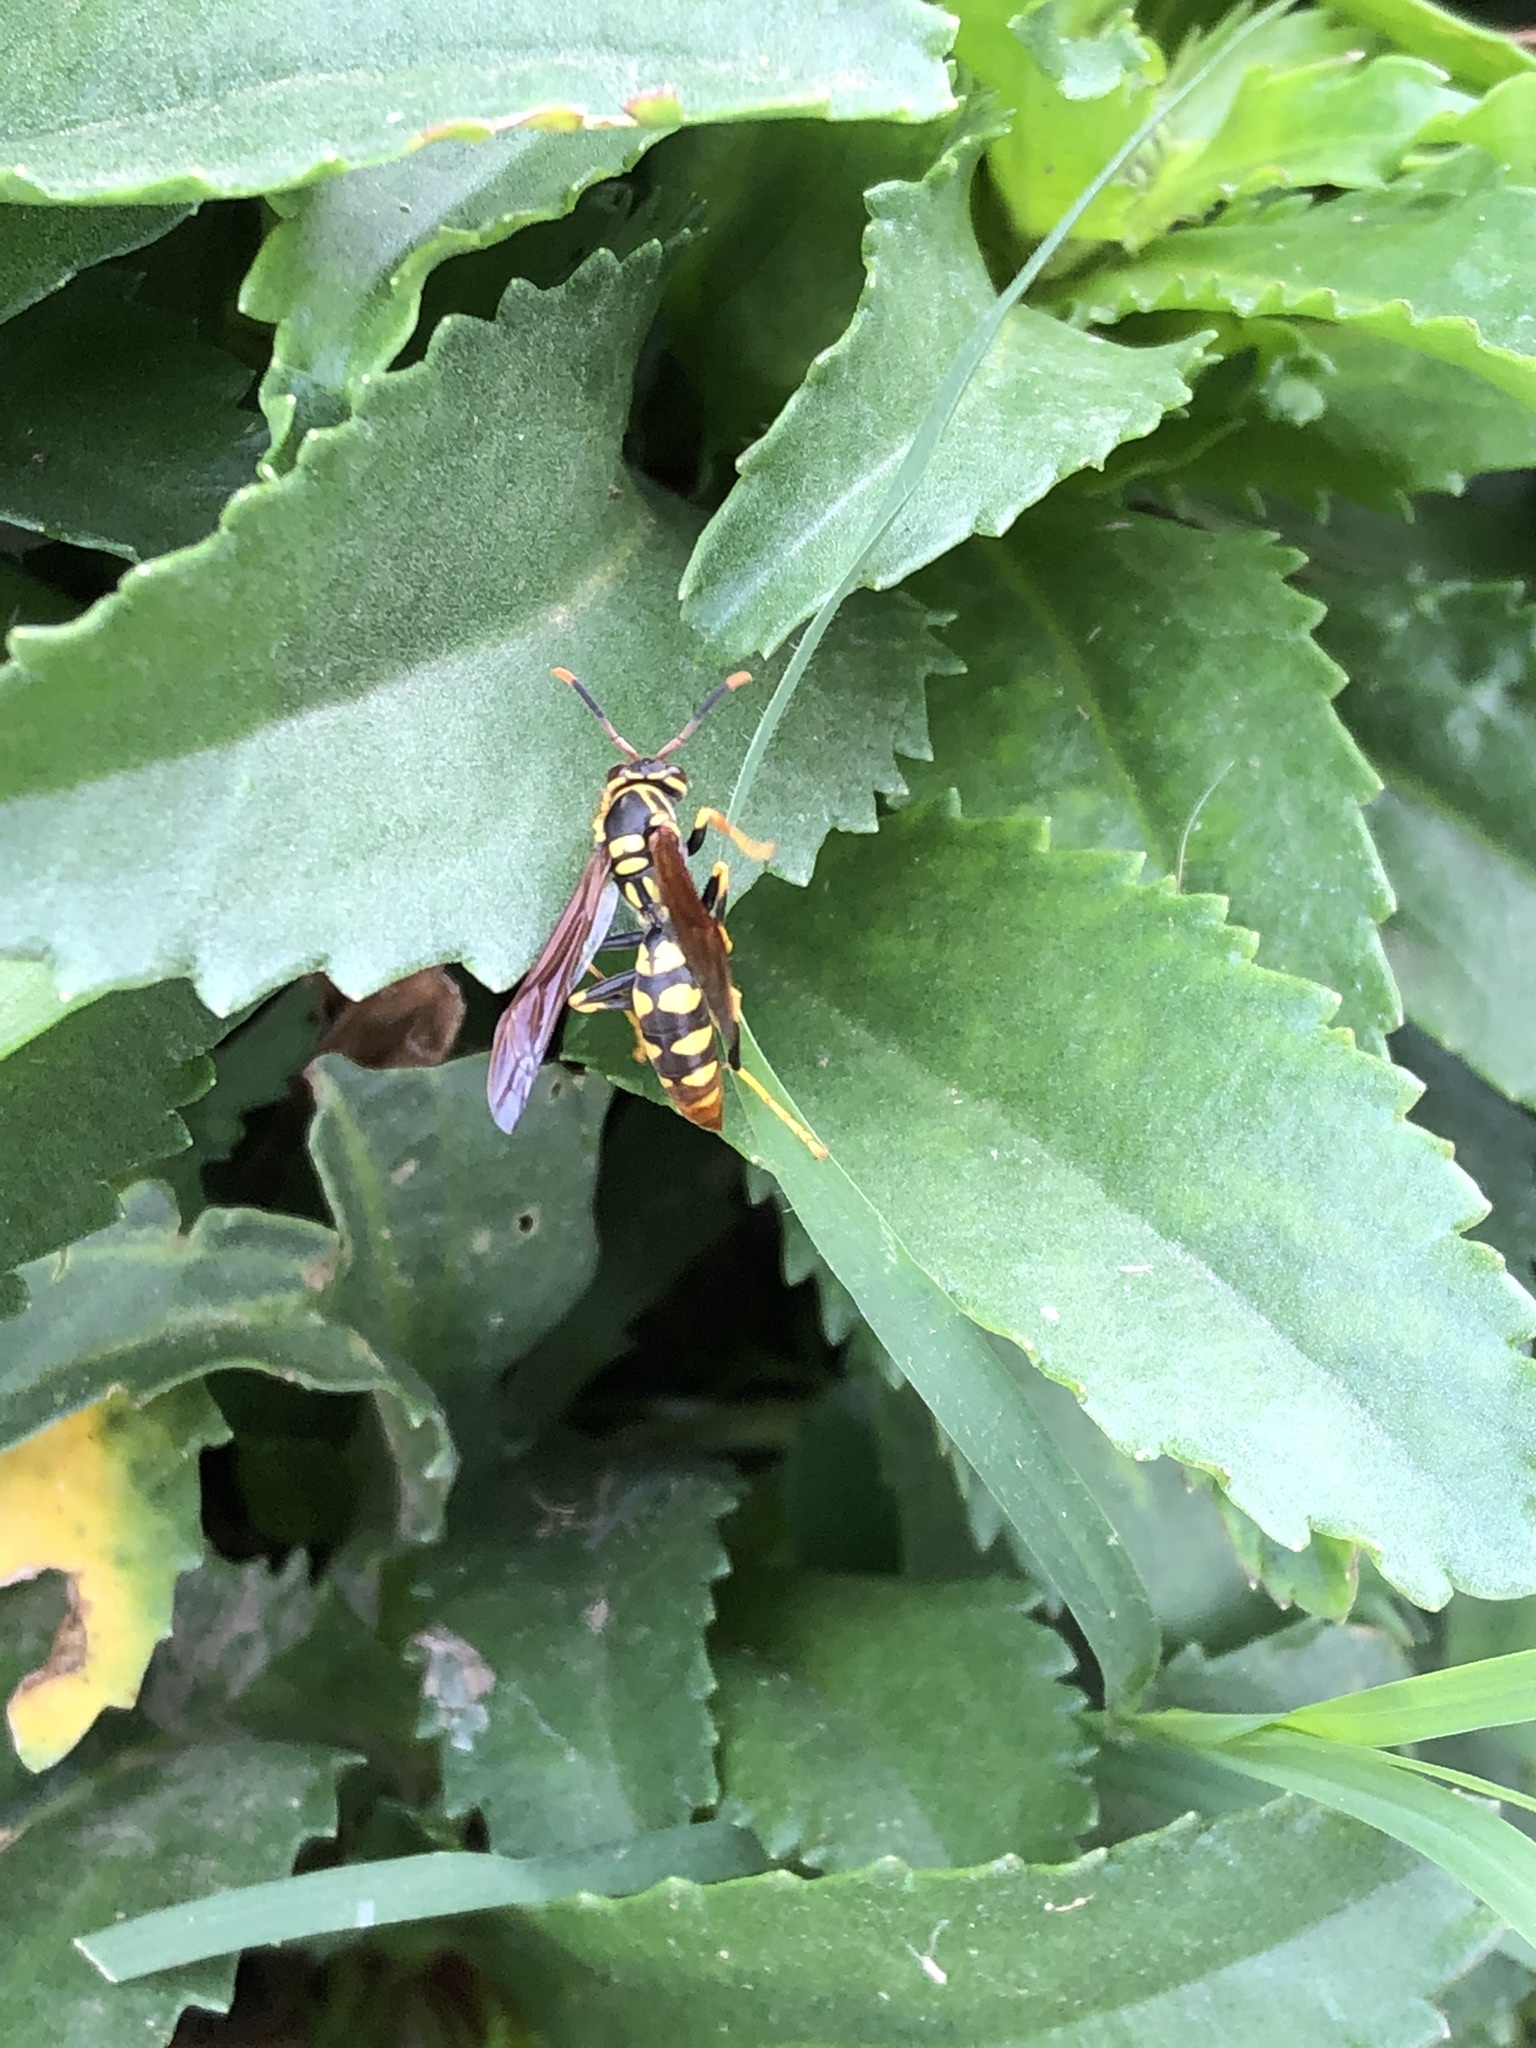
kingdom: Animalia
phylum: Arthropoda
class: Insecta
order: Hymenoptera
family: Eumenidae
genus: Polistes
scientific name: Polistes weyrauchorum
